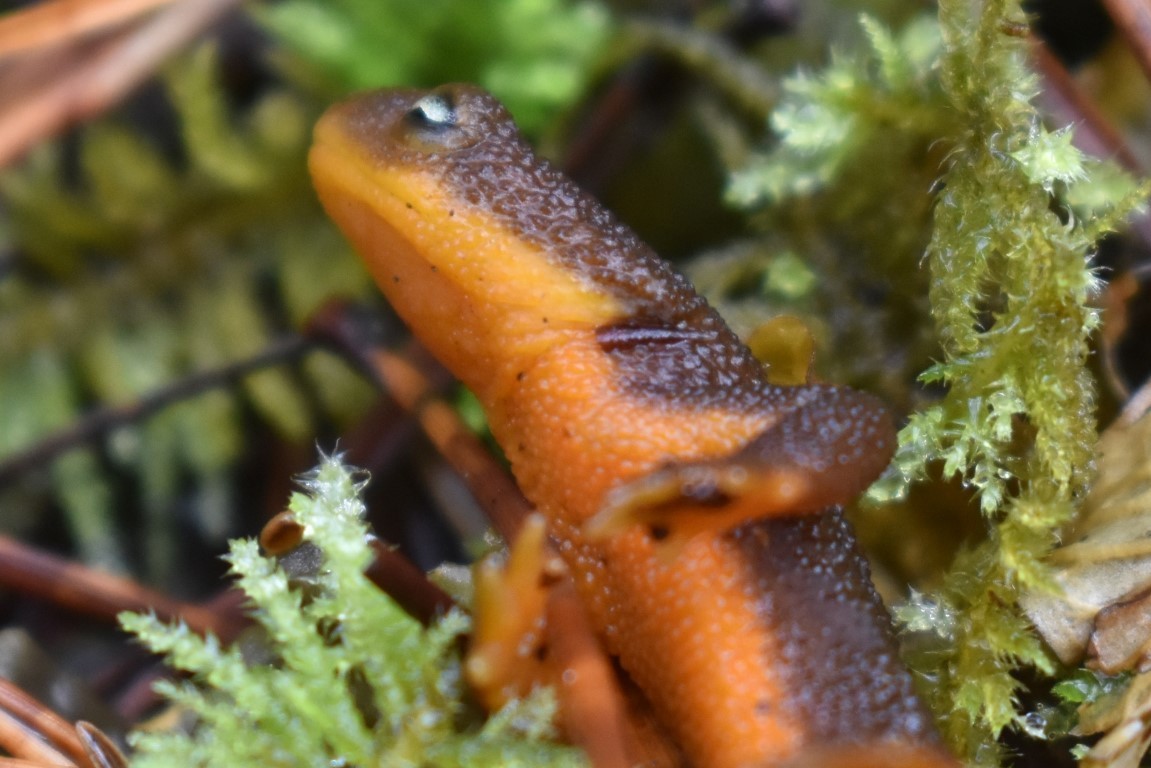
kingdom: Animalia
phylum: Chordata
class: Amphibia
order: Caudata
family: Salamandridae
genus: Taricha
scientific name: Taricha granulosa
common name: Roughskin newt
